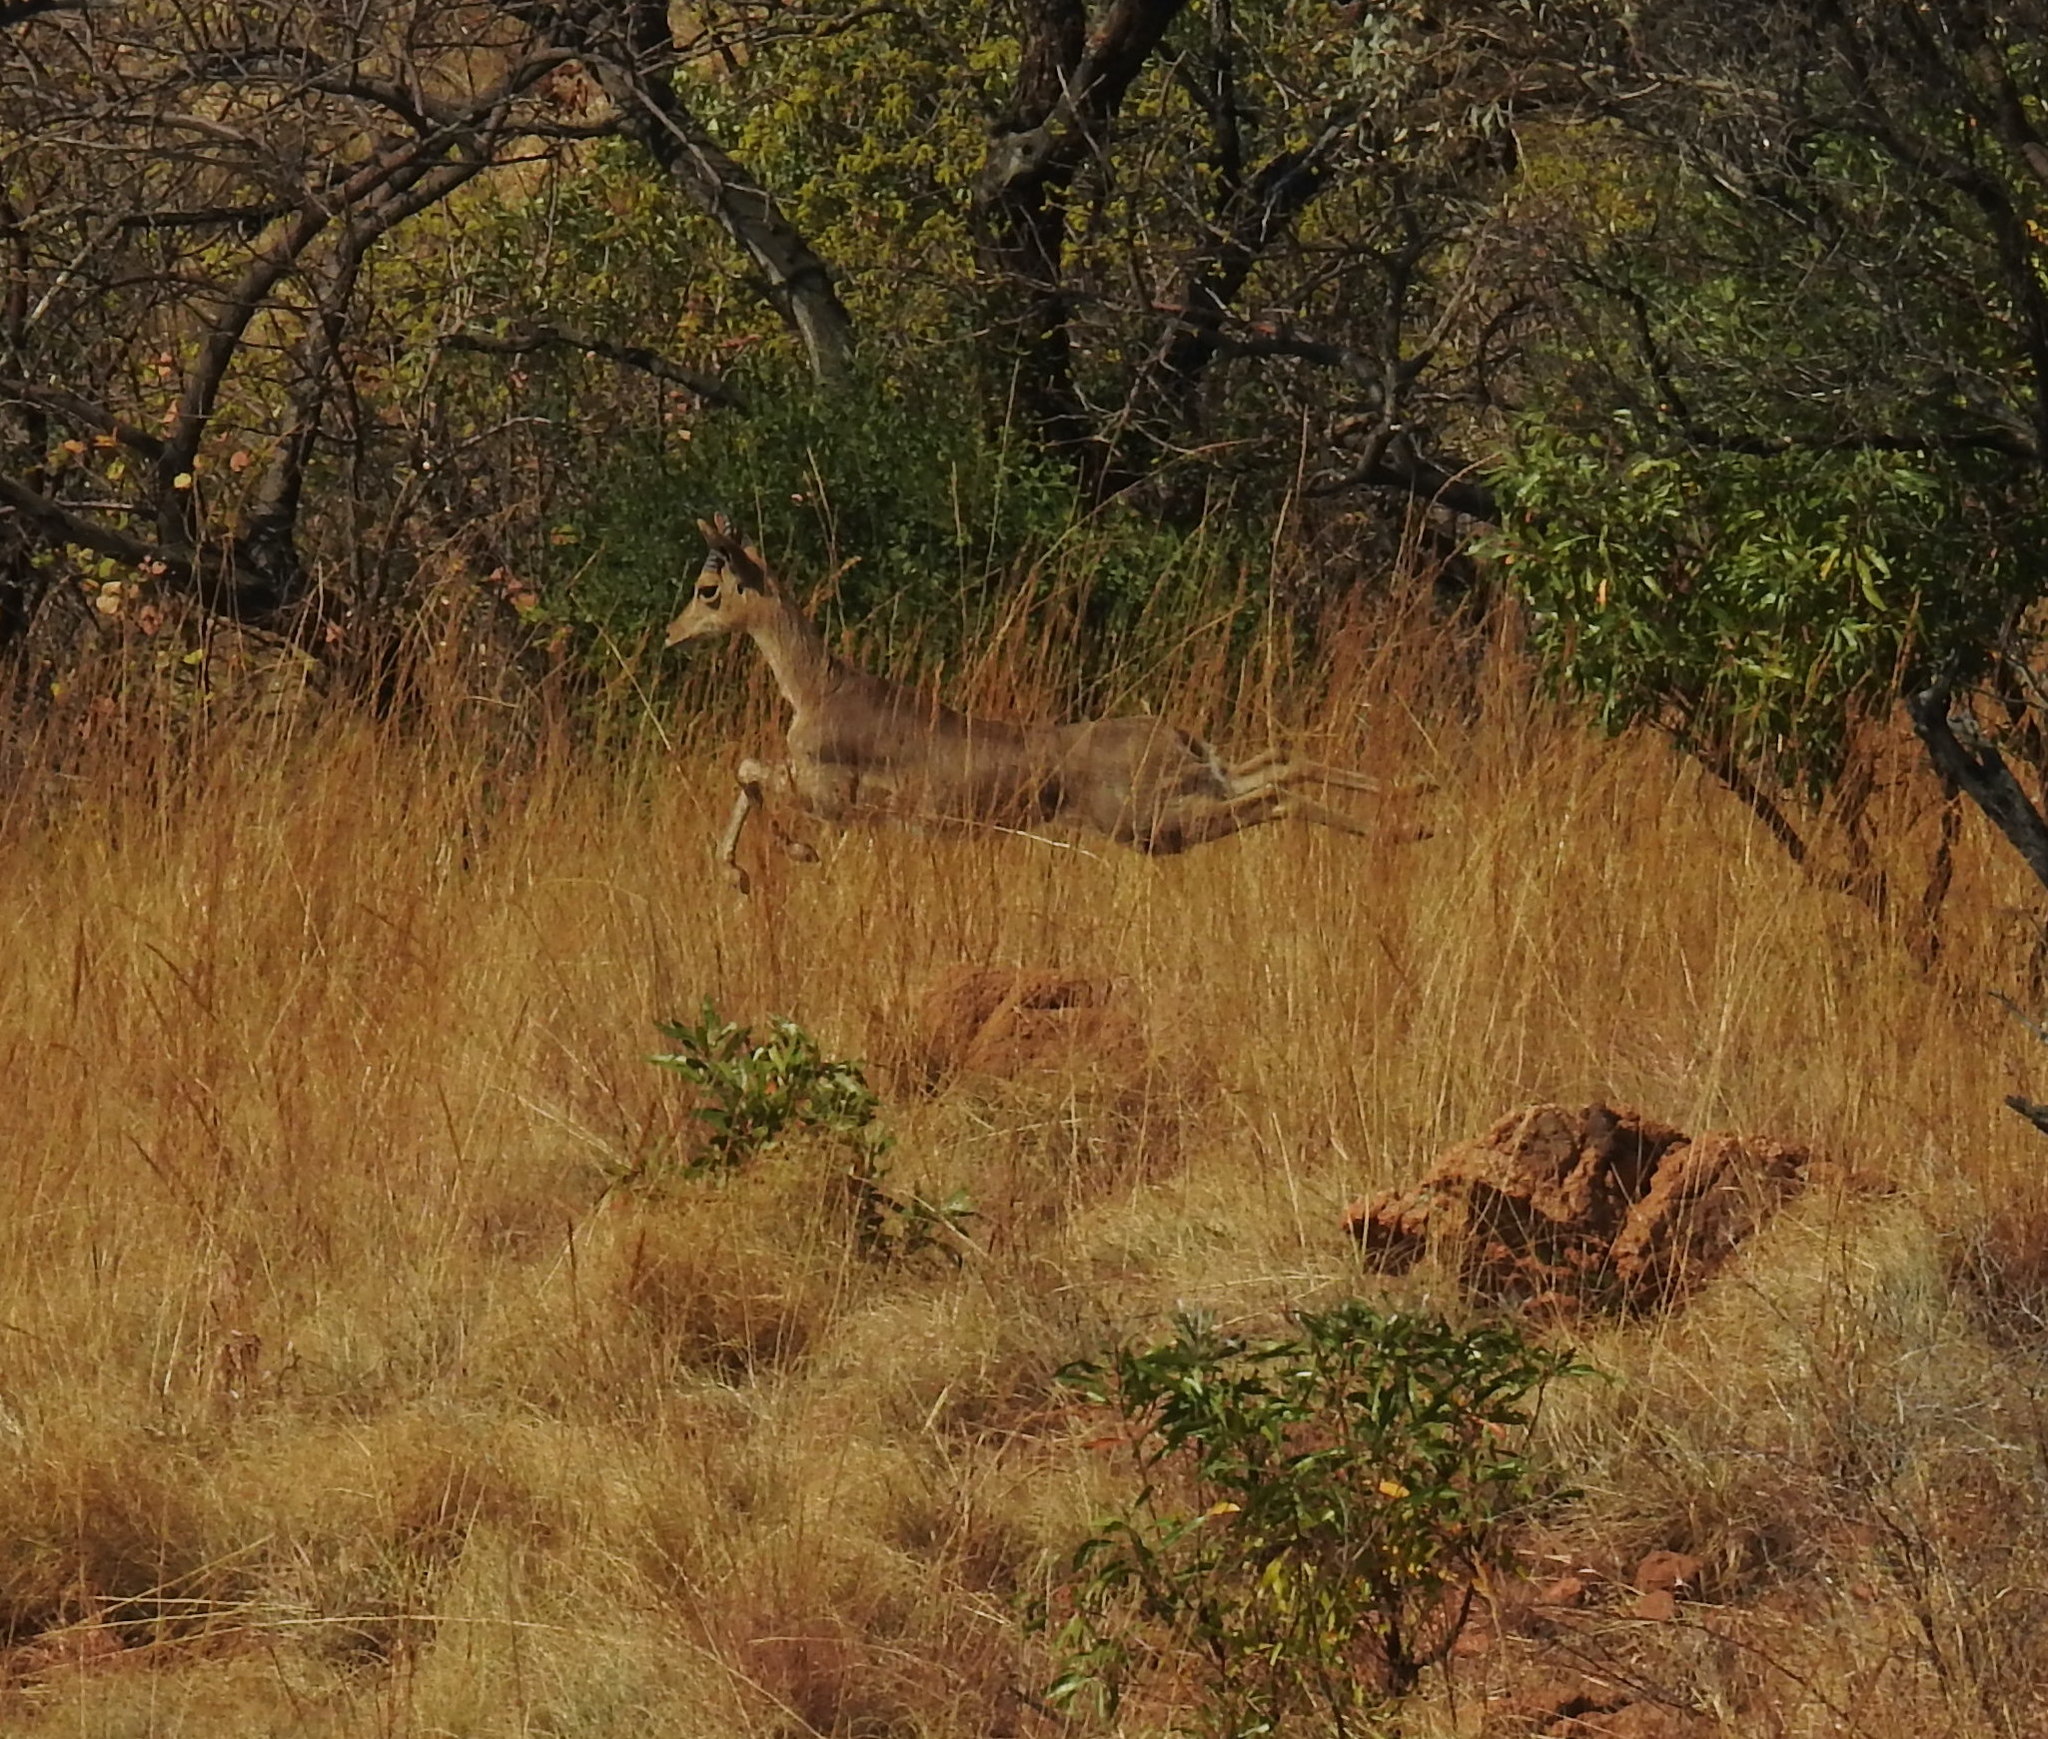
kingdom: Animalia
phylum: Chordata
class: Mammalia
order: Artiodactyla
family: Bovidae
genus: Redunca
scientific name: Redunca fulvorufula
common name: Mountain reedbuck
